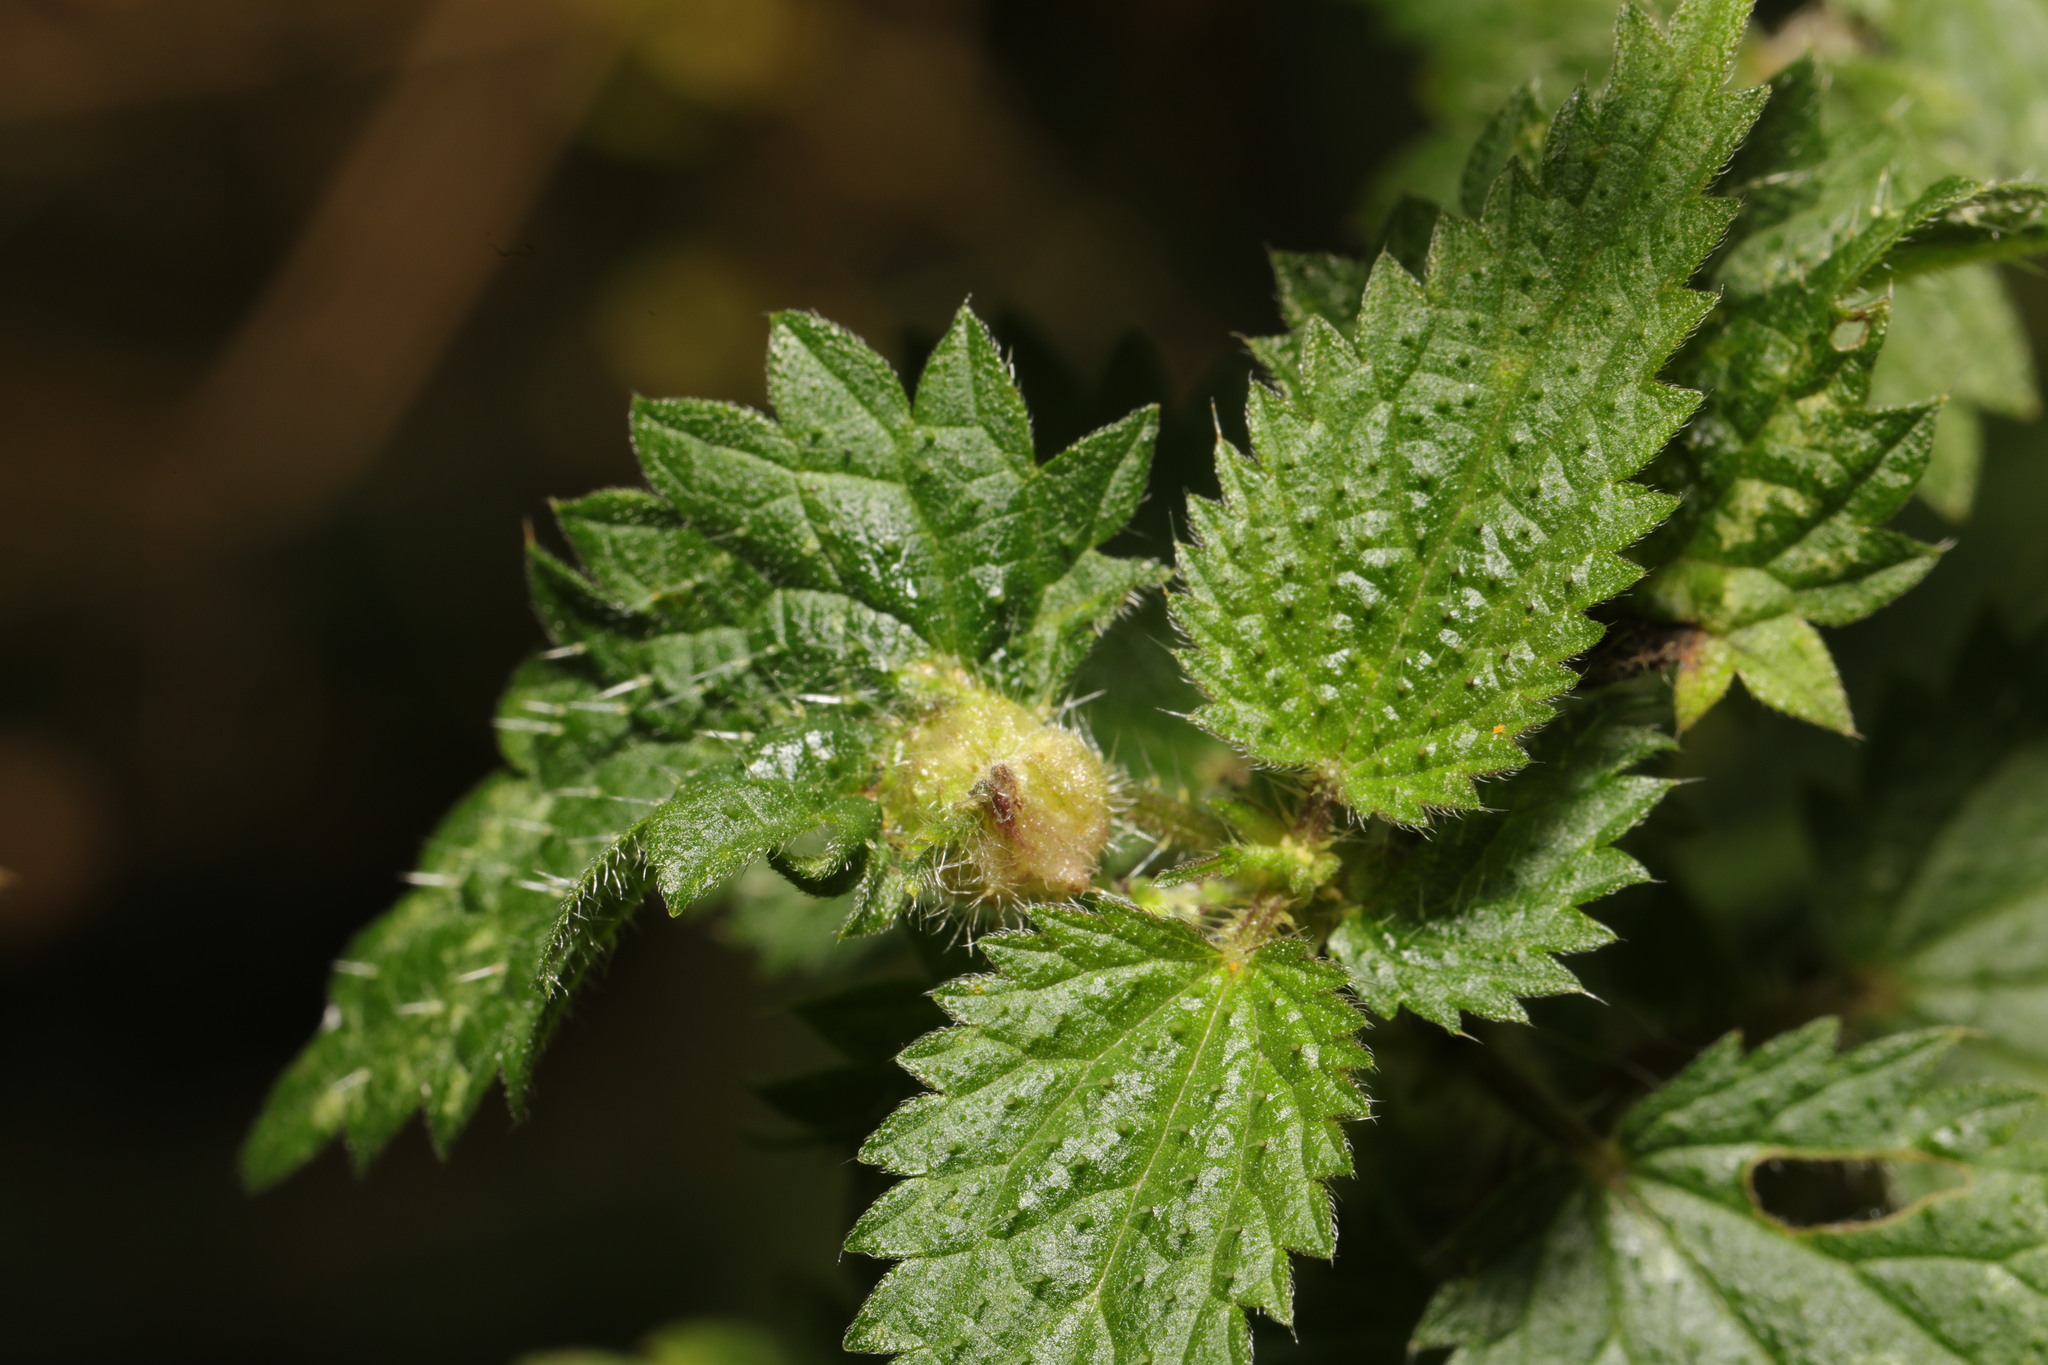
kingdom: Animalia
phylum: Arthropoda
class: Insecta
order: Diptera
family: Cecidomyiidae
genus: Dasineura
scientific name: Dasineura urticae
